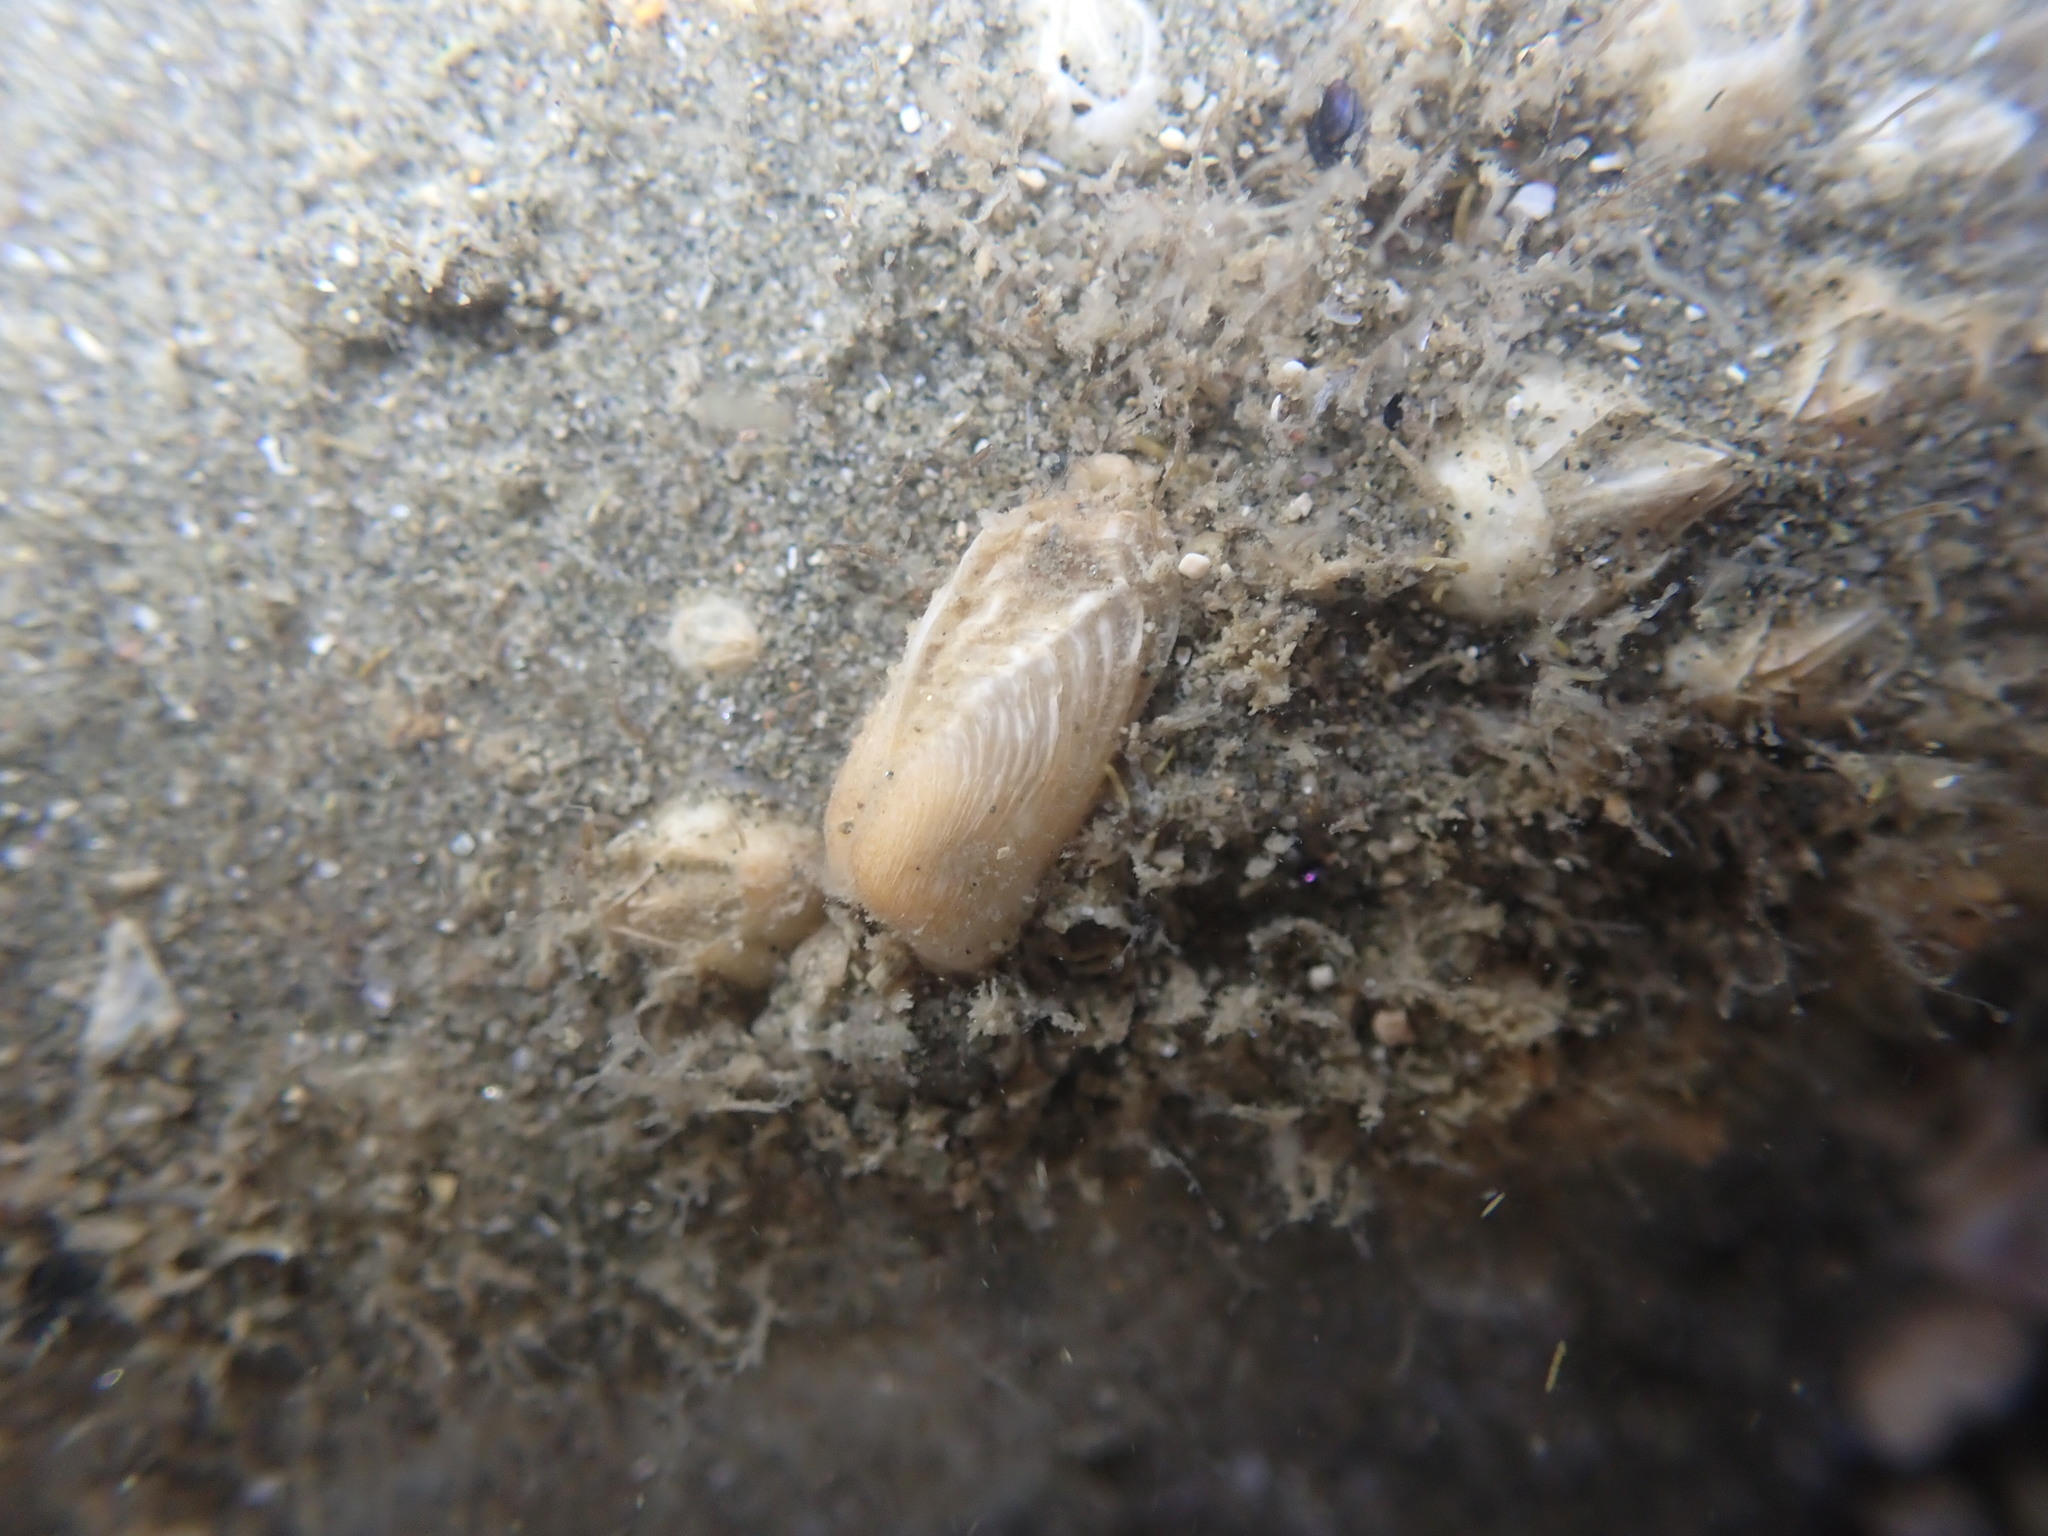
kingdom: Animalia
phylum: Mollusca
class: Bivalvia
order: Adapedonta
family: Hiatellidae
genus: Hiatella
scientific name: Hiatella arctica
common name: Arctic hiatella
